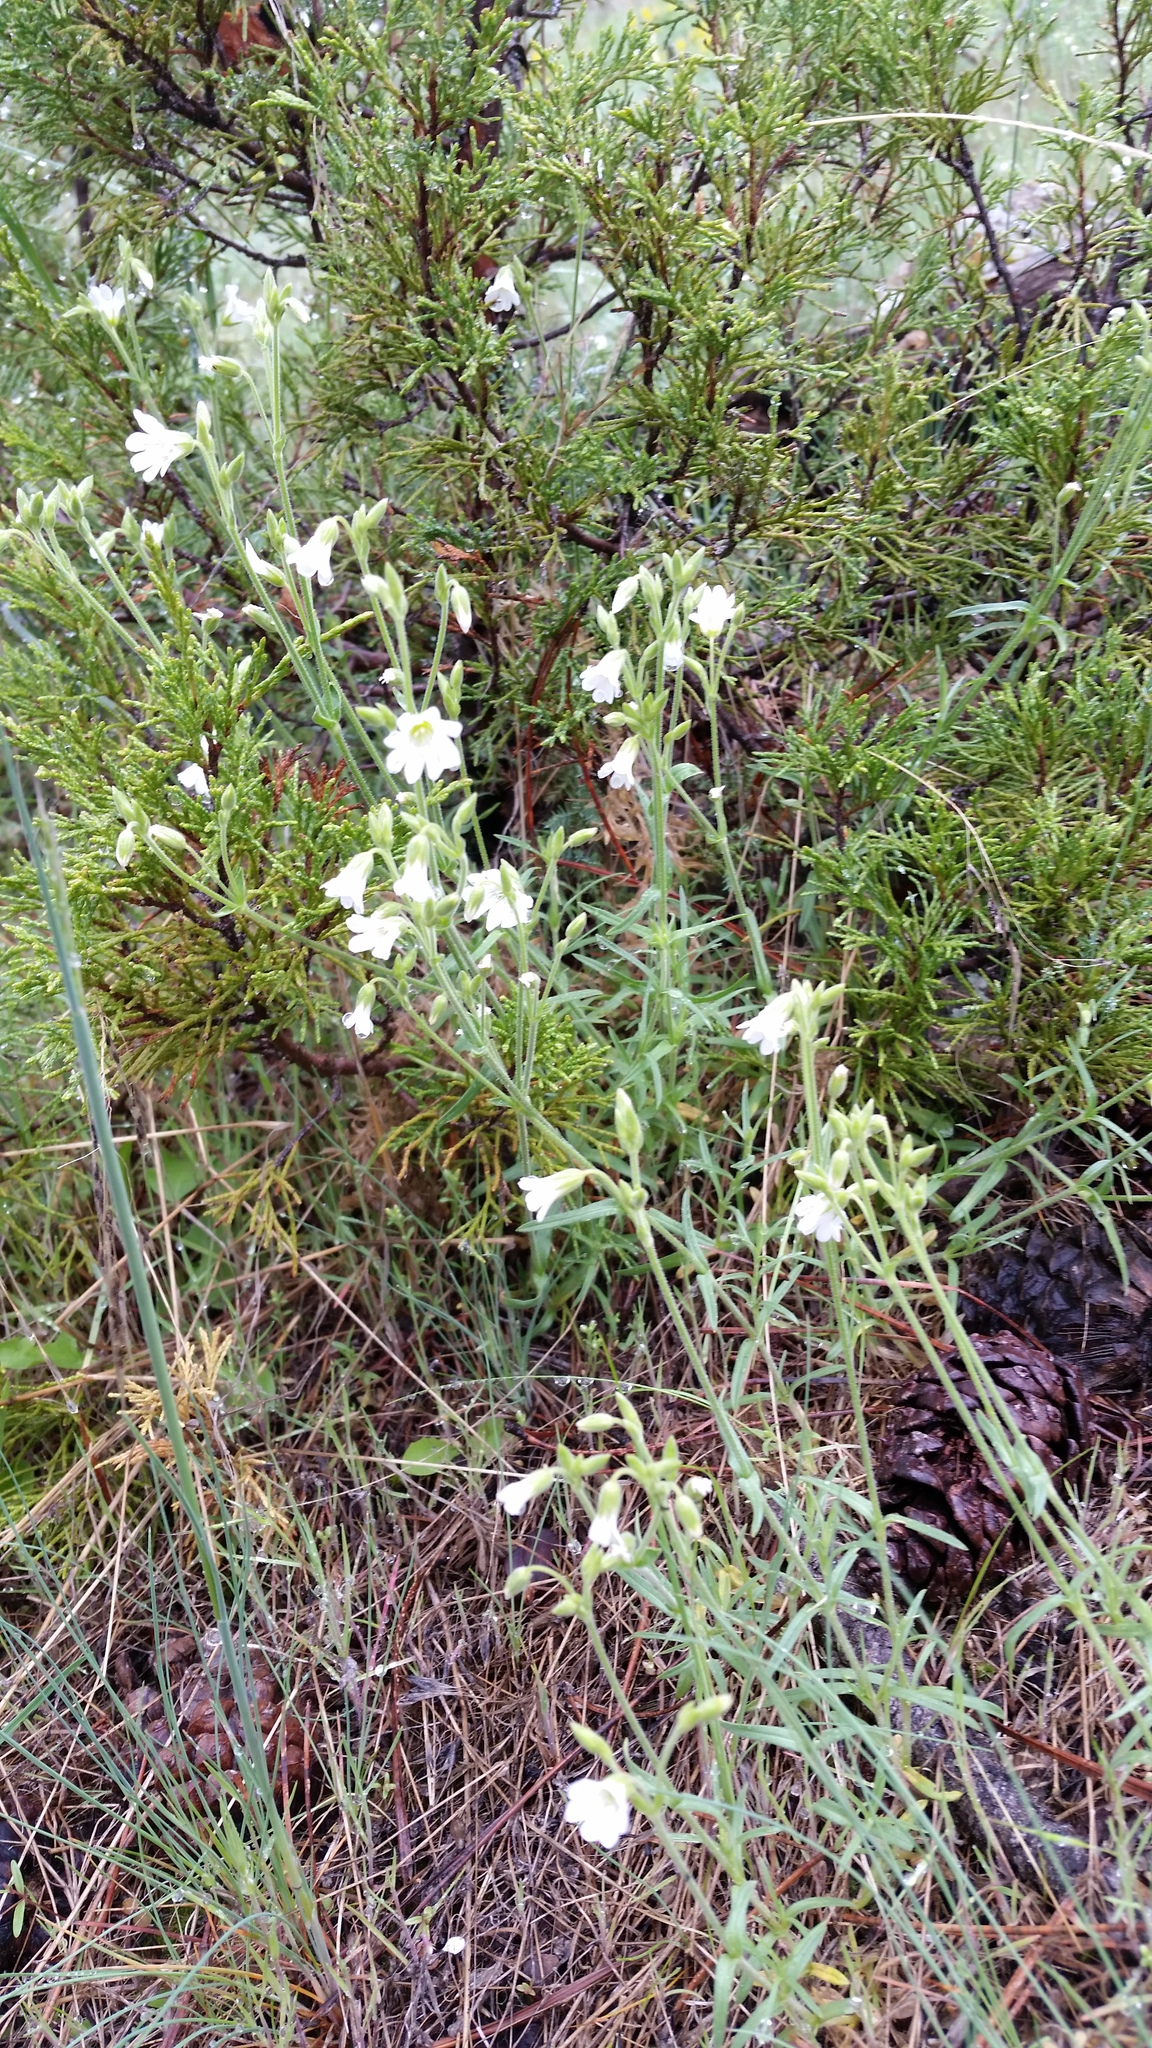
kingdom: Plantae
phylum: Tracheophyta
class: Magnoliopsida
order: Caryophyllales
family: Caryophyllaceae
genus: Cerastium
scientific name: Cerastium arvense
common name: Field mouse-ear
